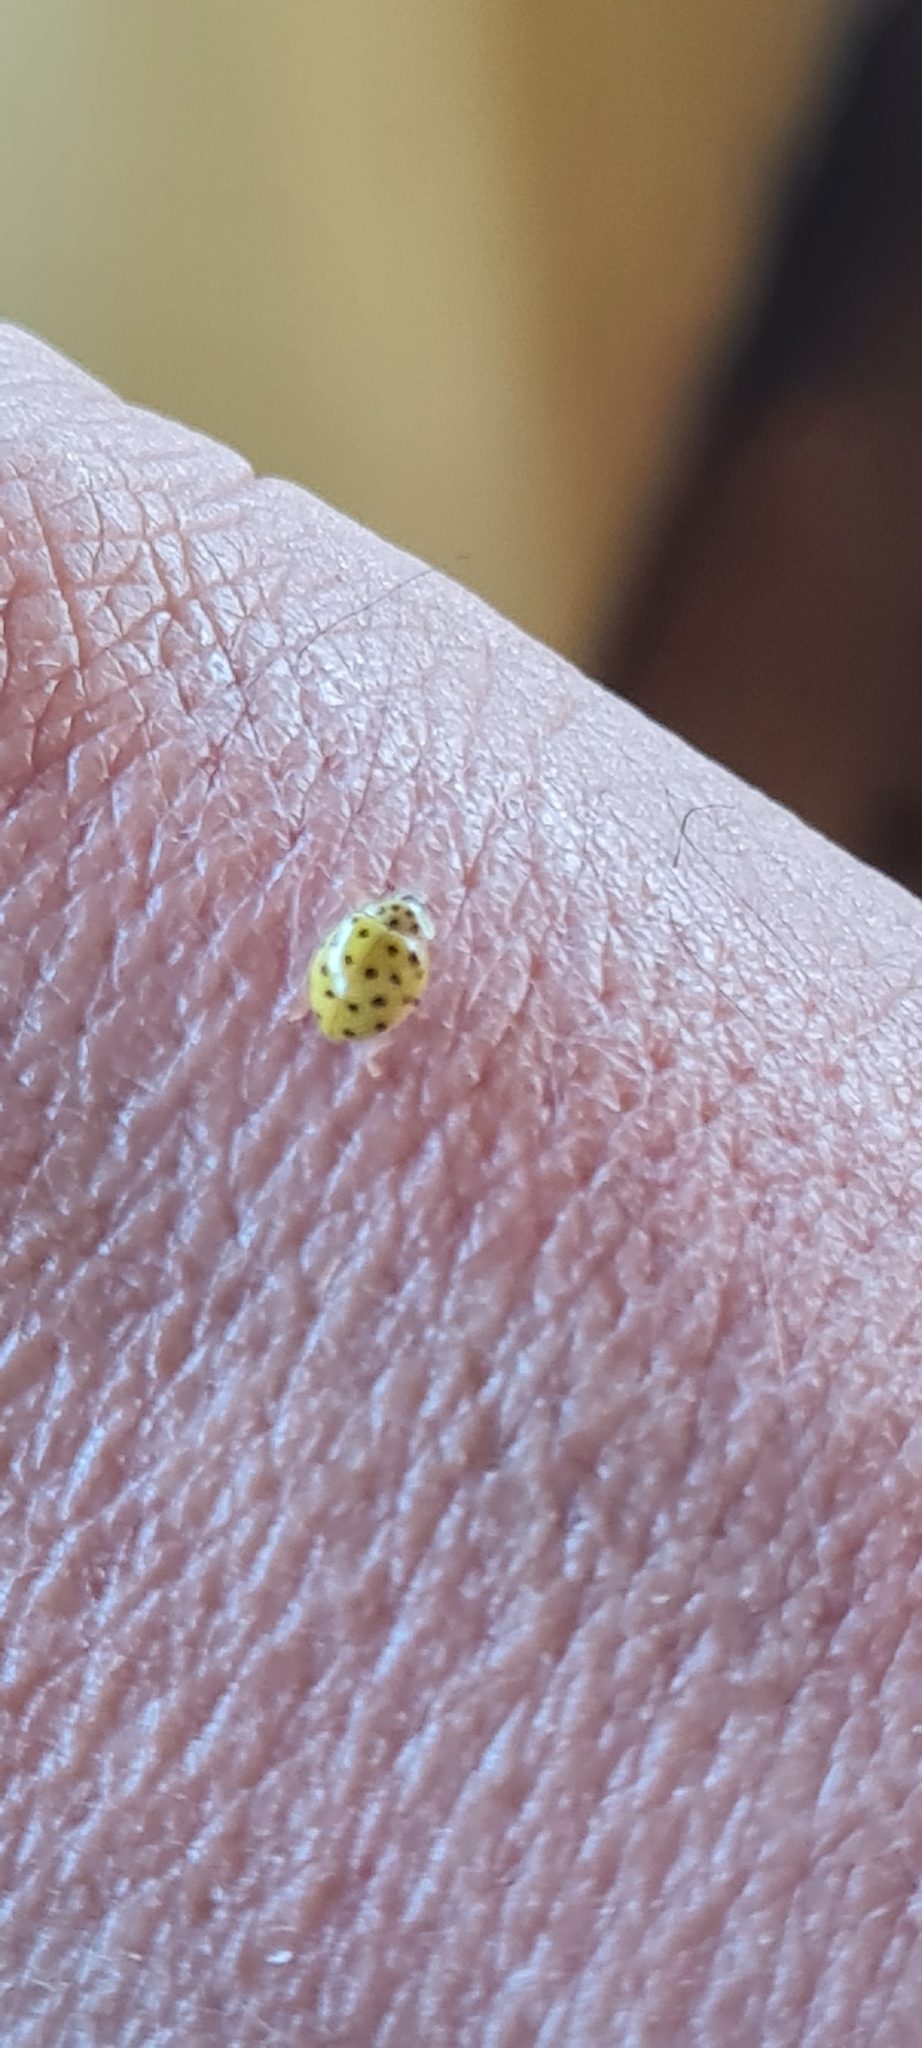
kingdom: Animalia
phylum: Arthropoda
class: Insecta
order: Coleoptera
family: Coccinellidae
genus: Psyllobora
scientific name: Psyllobora vigintiduopunctata
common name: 22-spot ladybird
